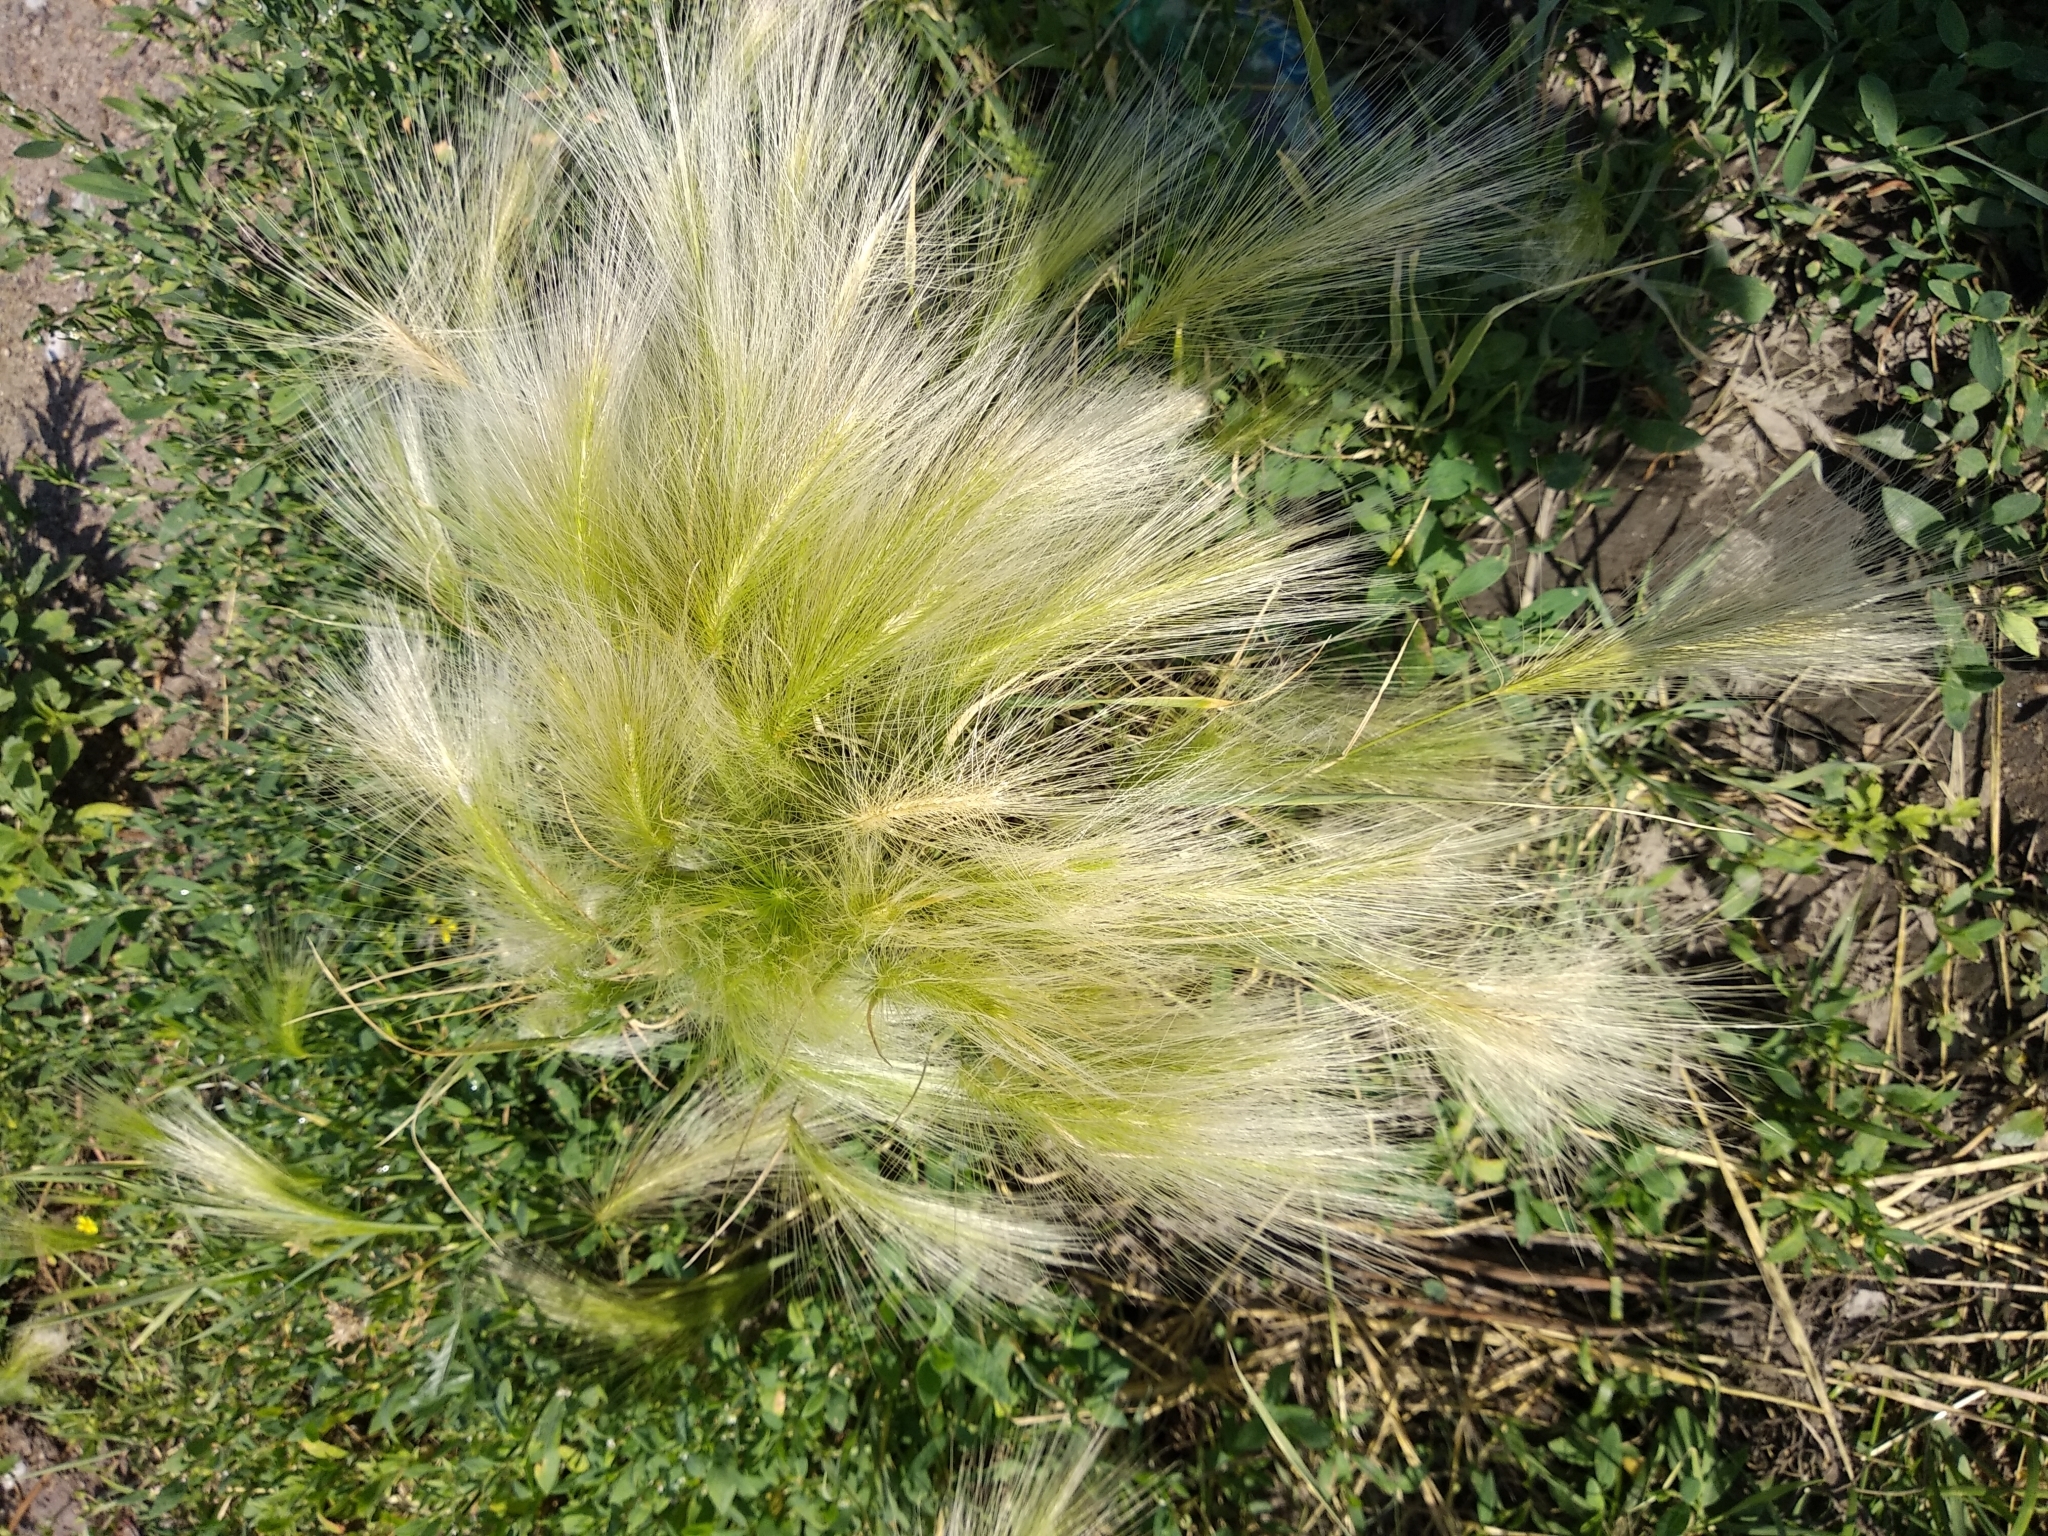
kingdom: Plantae
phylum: Tracheophyta
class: Liliopsida
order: Poales
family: Poaceae
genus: Hordeum
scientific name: Hordeum jubatum
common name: Foxtail barley
